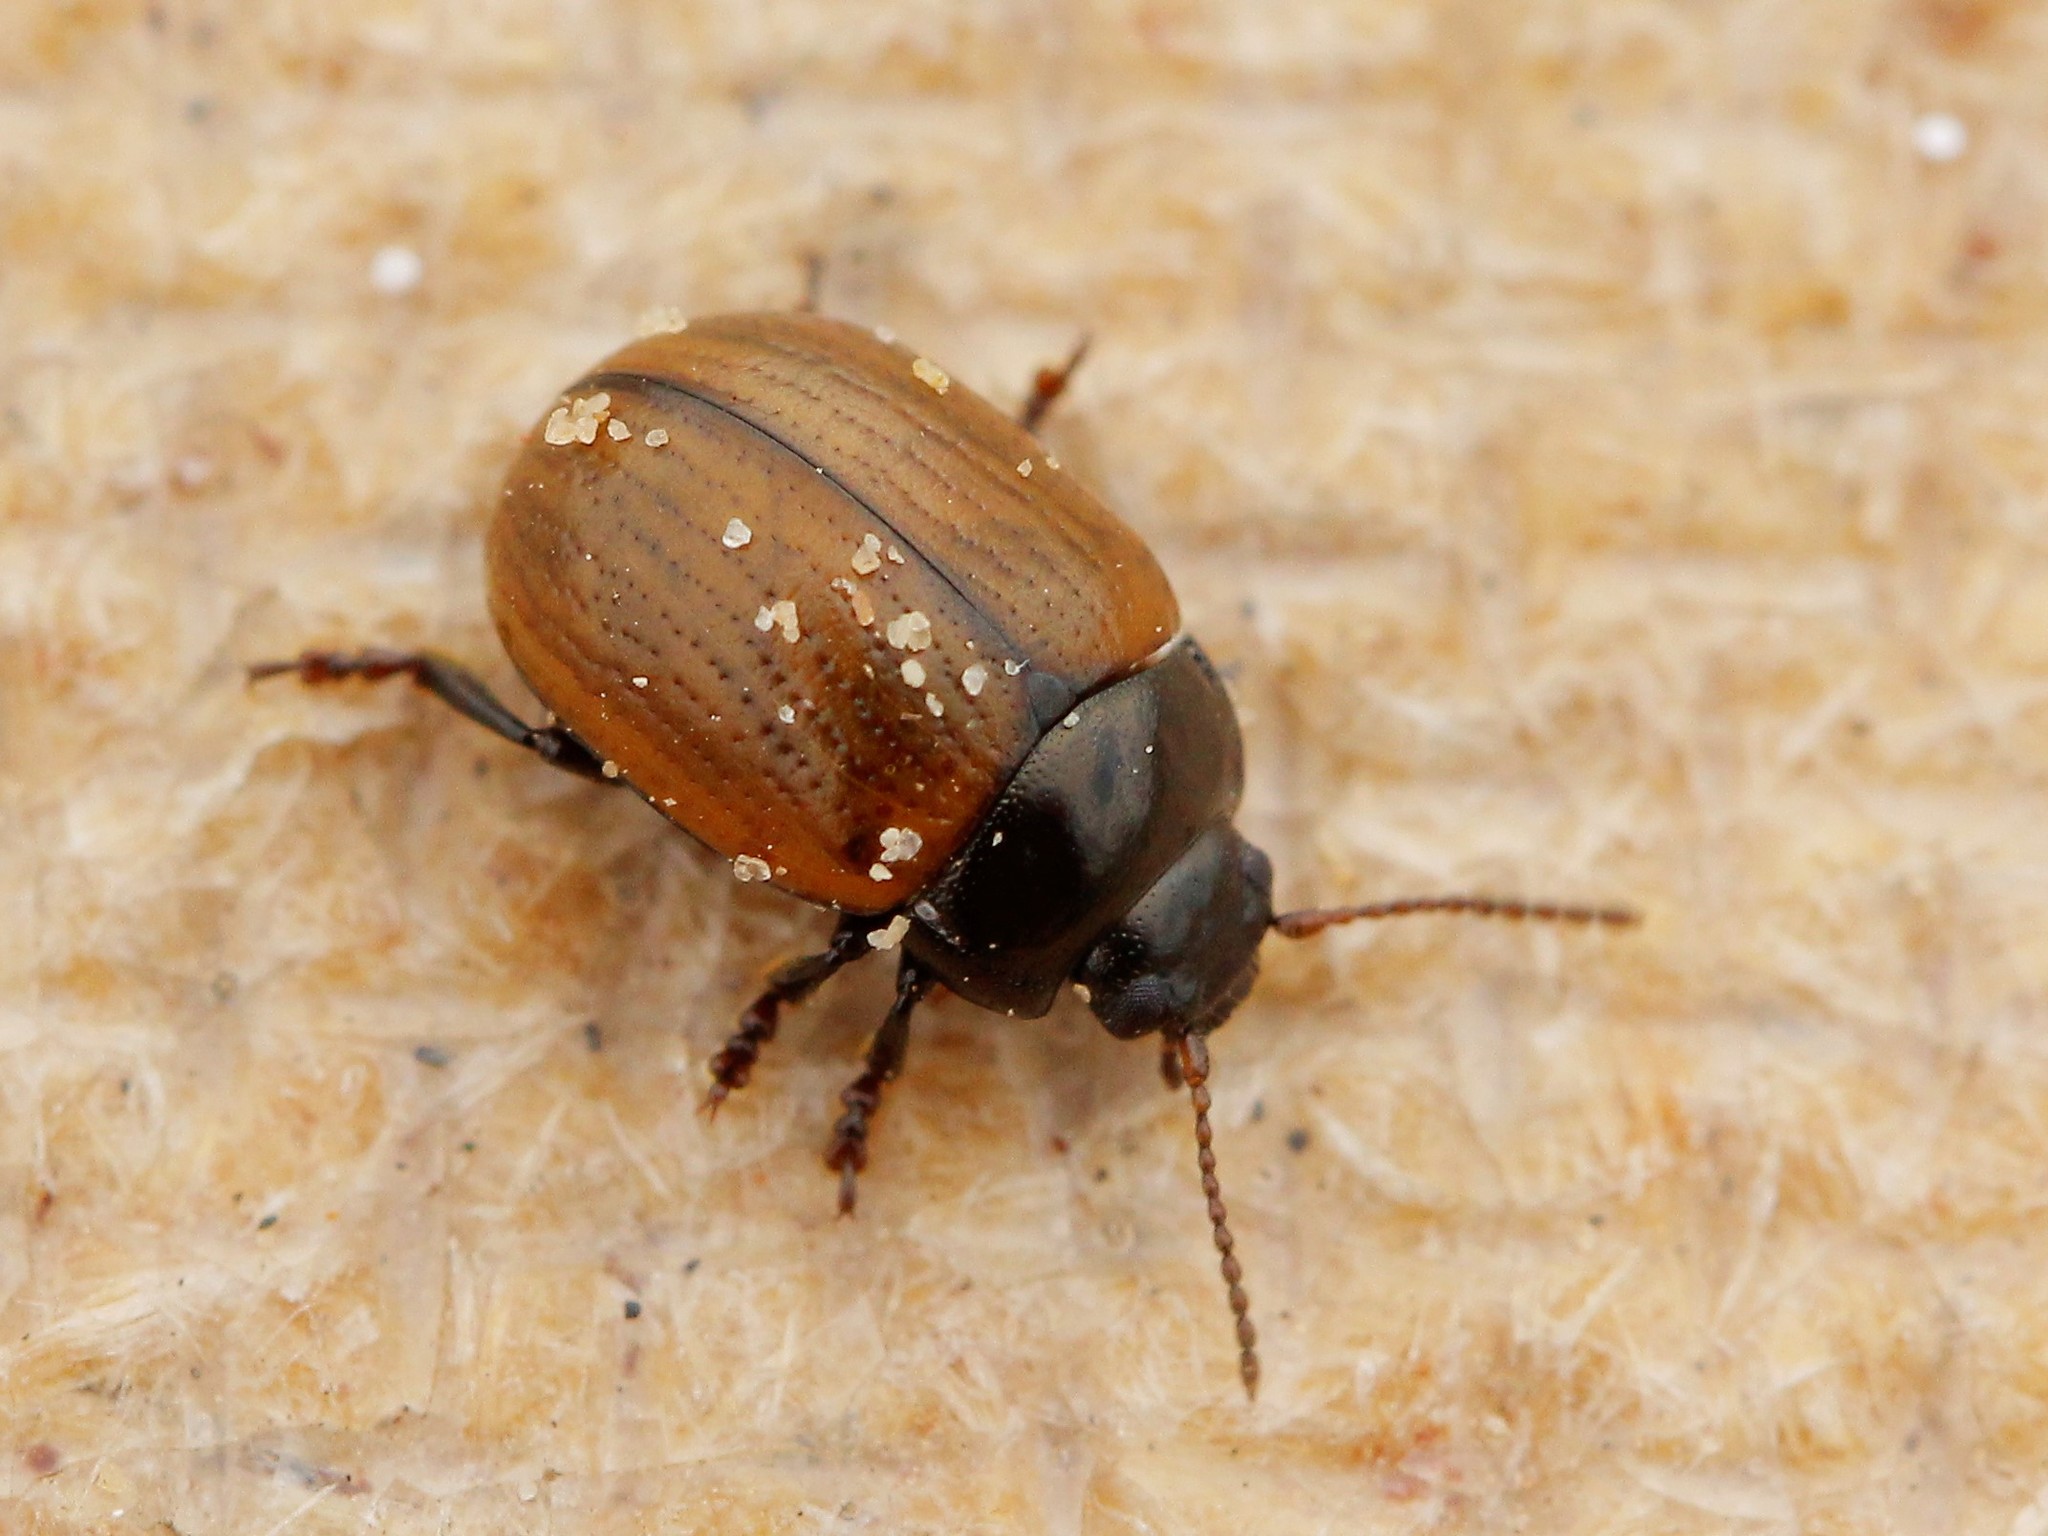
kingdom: Animalia
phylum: Arthropoda
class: Insecta
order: Coleoptera
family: Chrysomelidae
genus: Chrysolina
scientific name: Chrysolina reitteri
